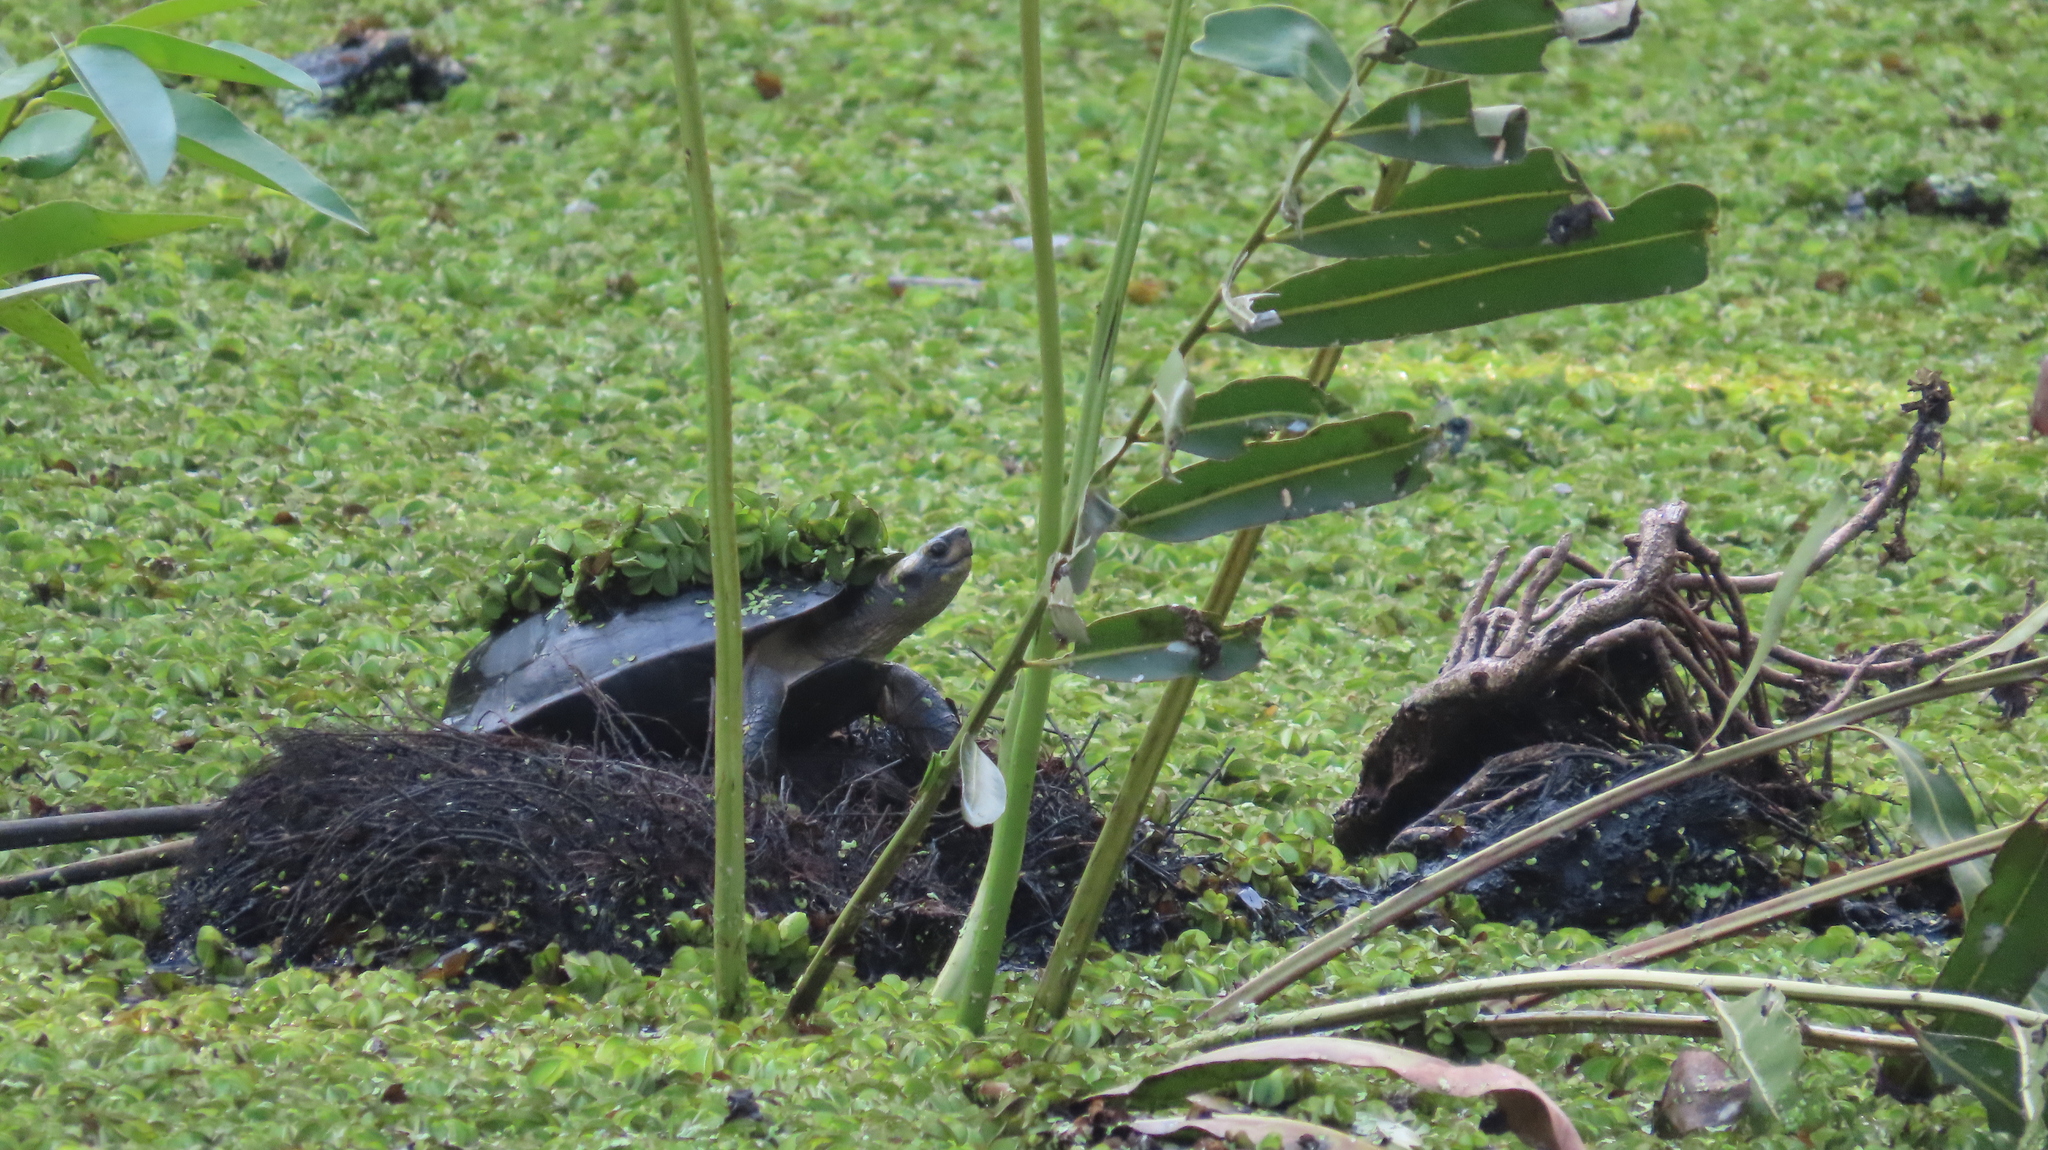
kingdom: Animalia
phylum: Chordata
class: Testudines
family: Geoemydidae
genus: Melanochelys
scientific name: Melanochelys trijuga
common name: Indian black turtle
